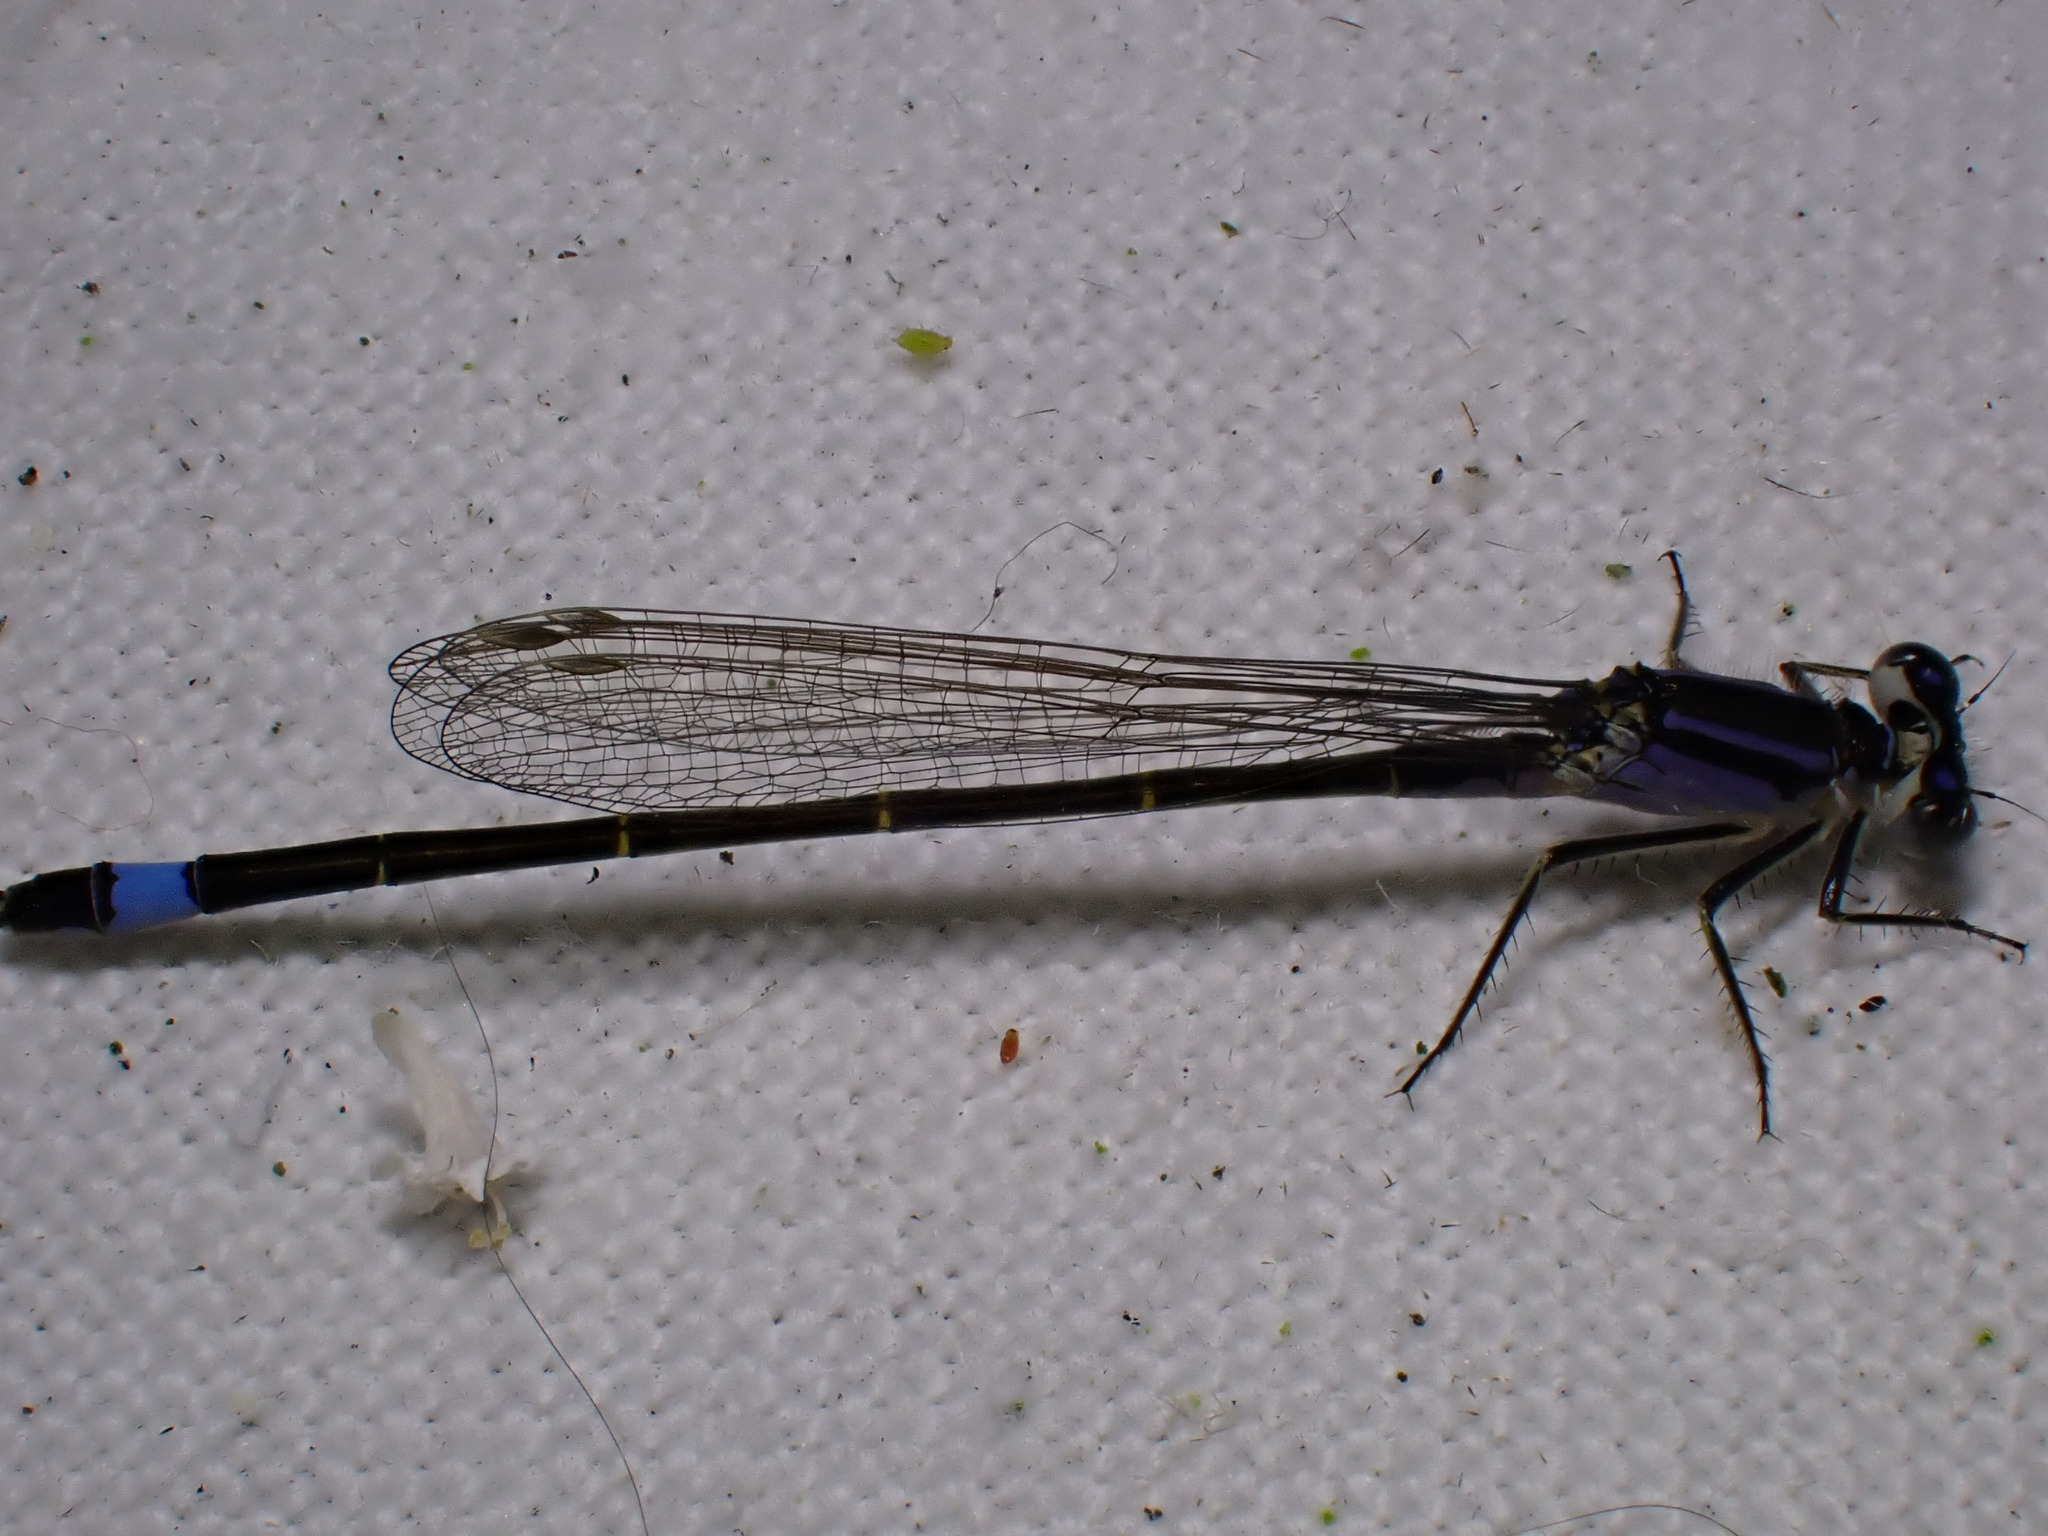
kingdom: Animalia
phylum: Arthropoda
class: Insecta
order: Odonata
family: Coenagrionidae
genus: Ischnura
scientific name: Ischnura elegans
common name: Blue-tailed damselfly
